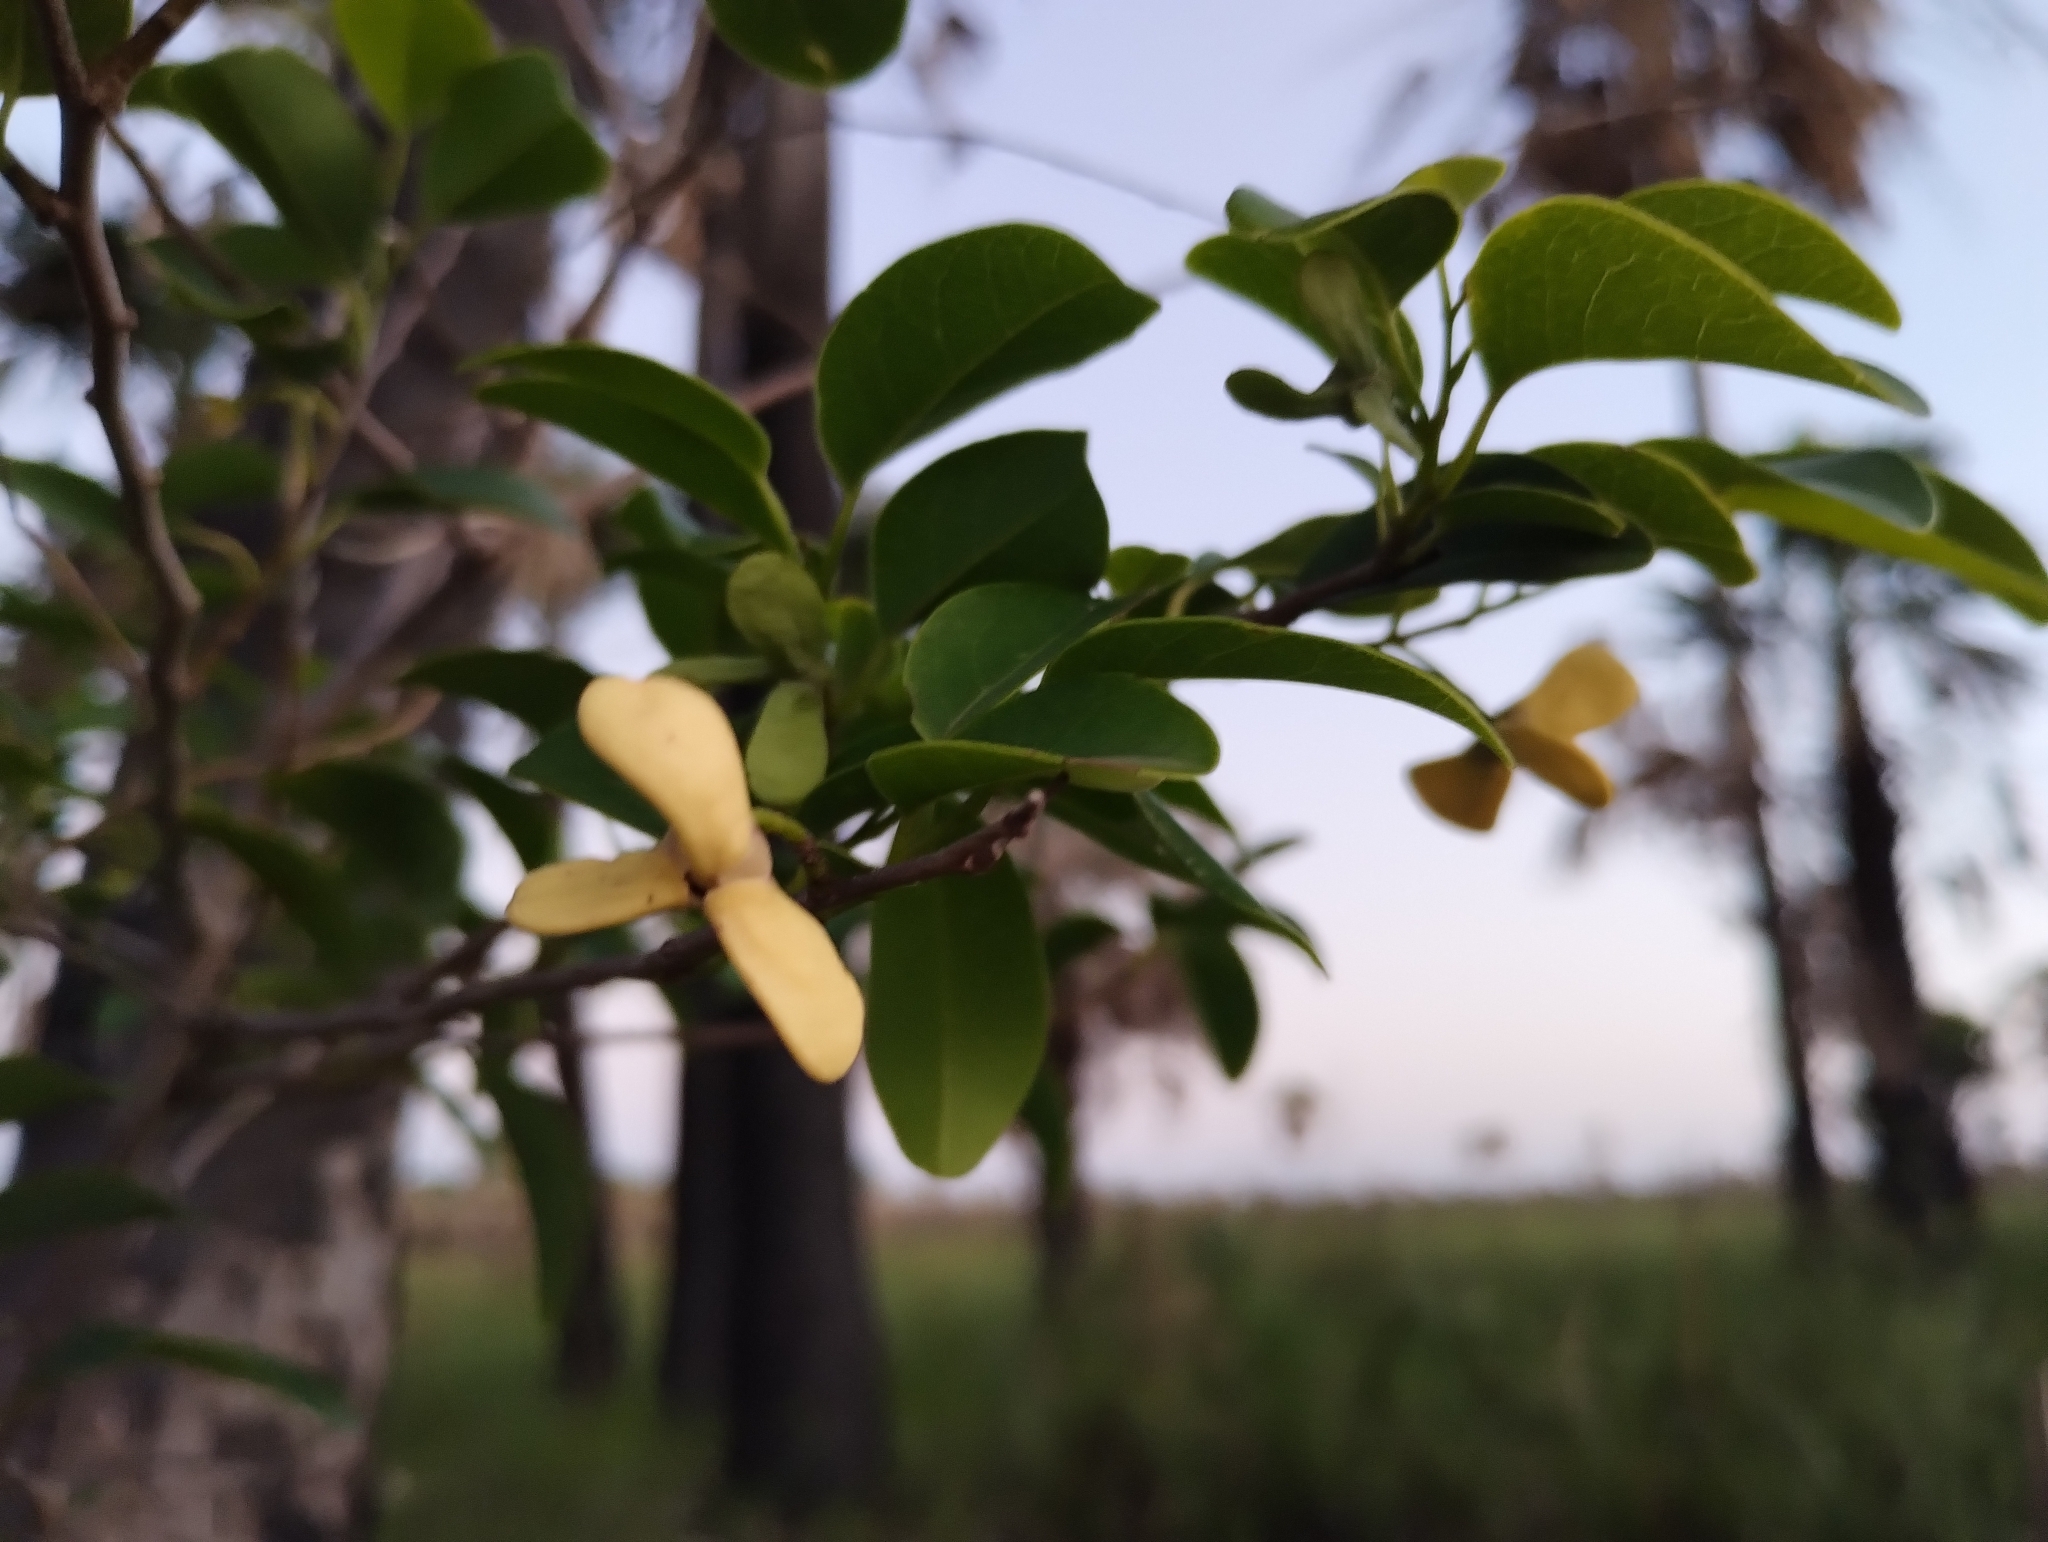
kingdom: Plantae
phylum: Tracheophyta
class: Magnoliopsida
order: Magnoliales
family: Annonaceae
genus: Annona
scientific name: Annona emarginata
